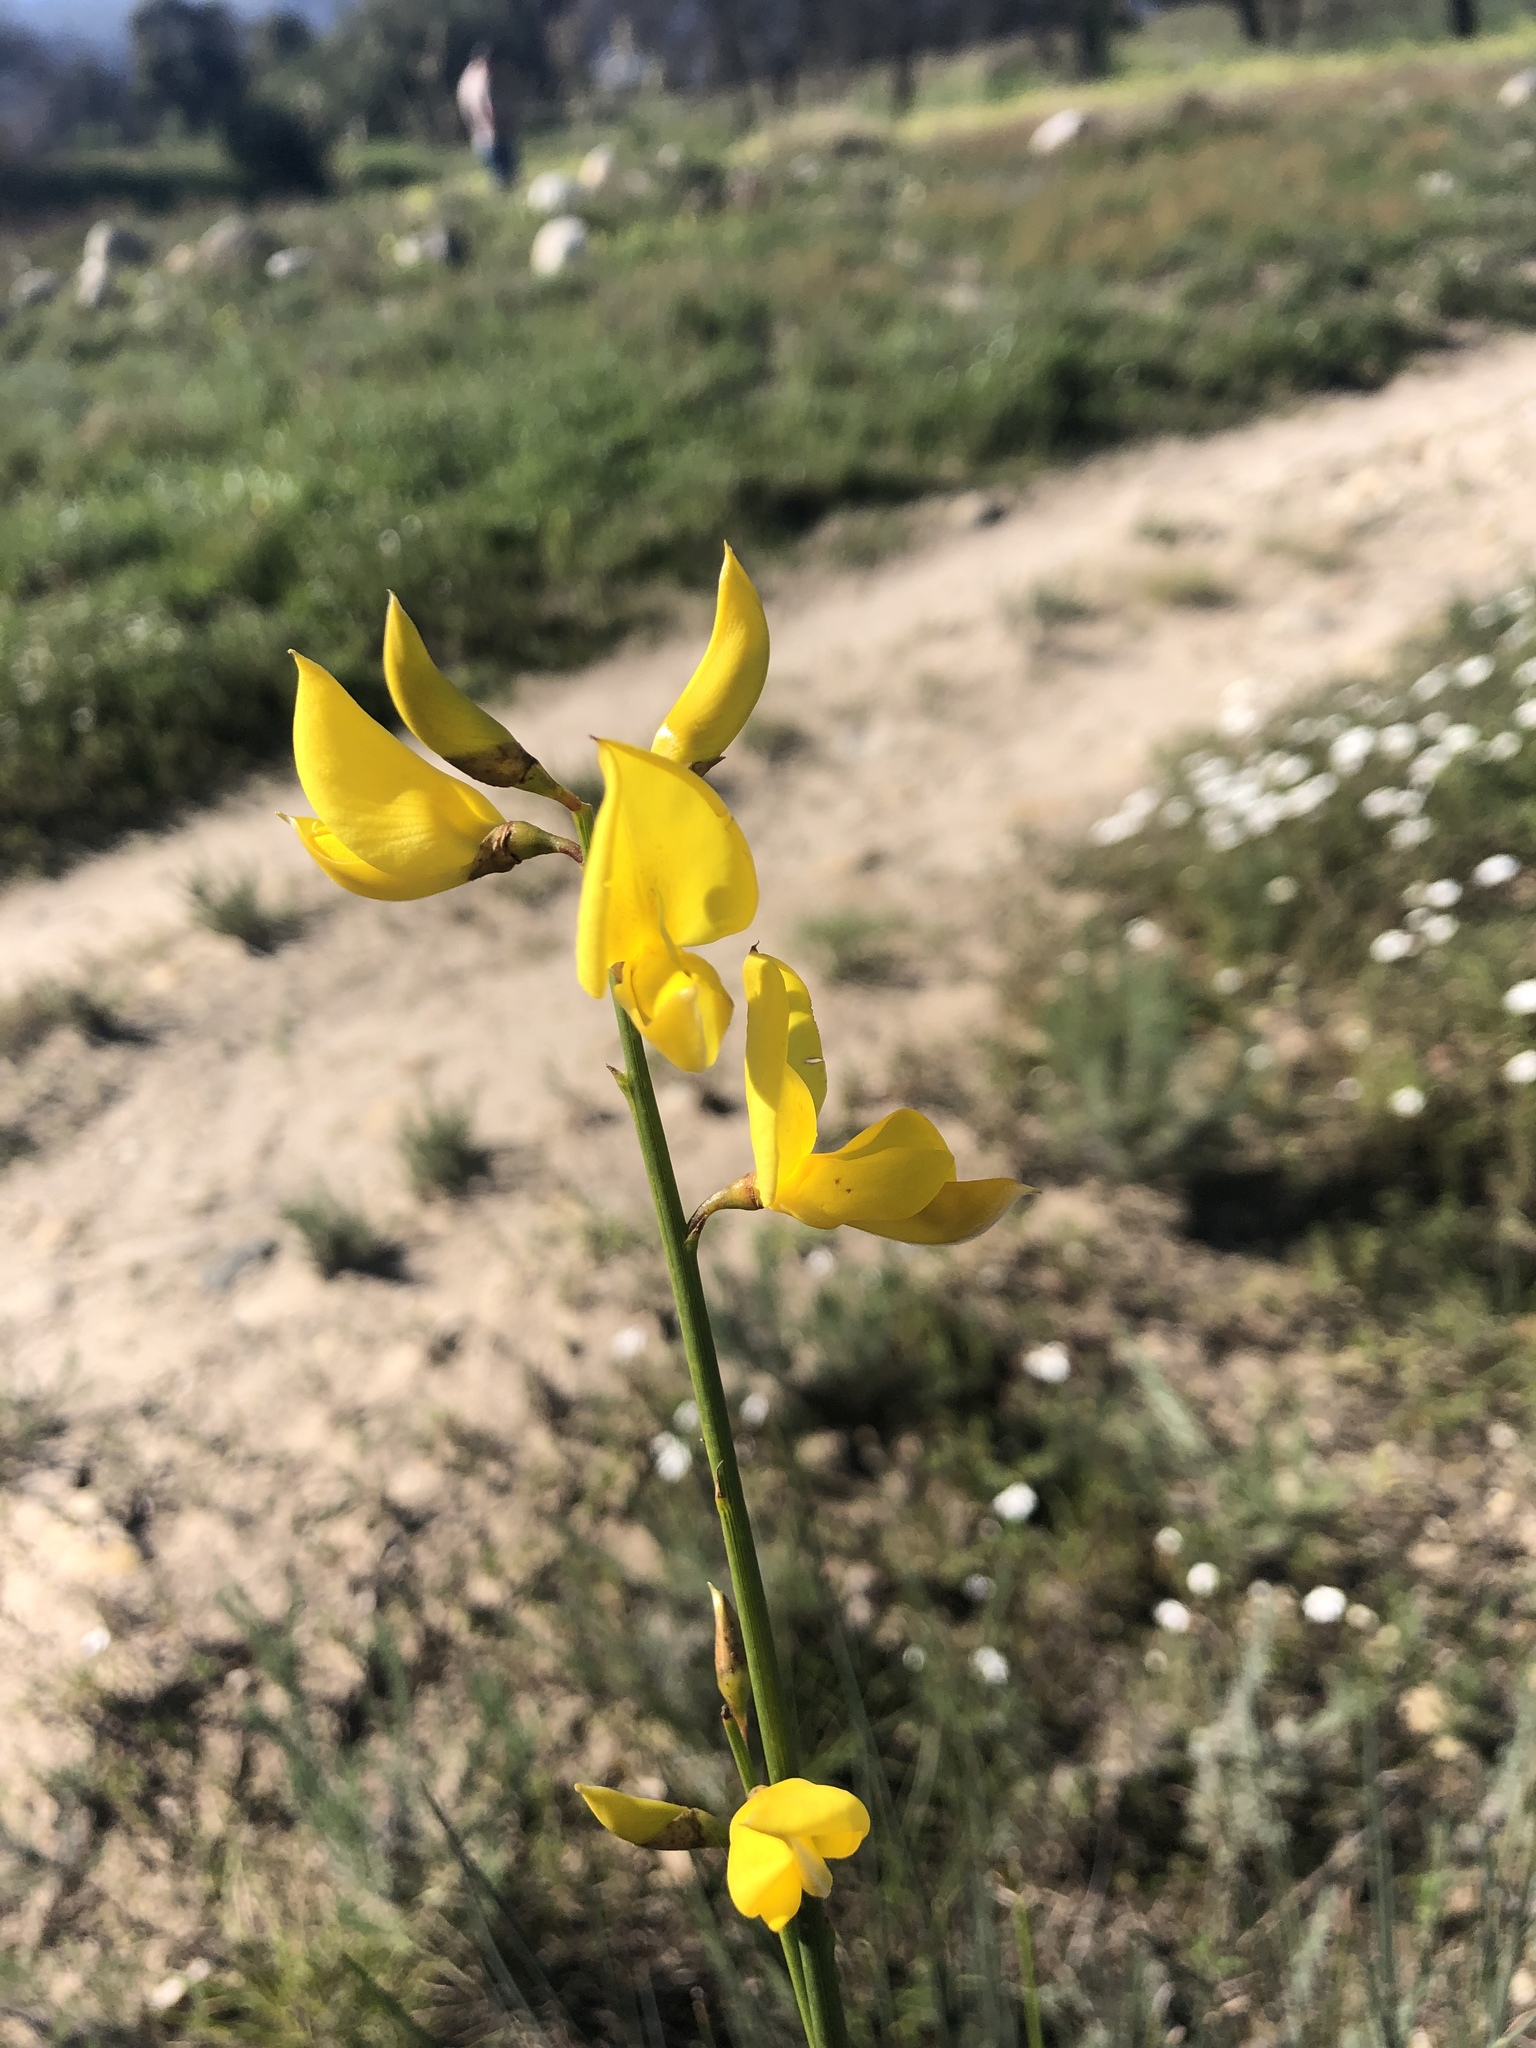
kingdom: Plantae
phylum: Tracheophyta
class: Magnoliopsida
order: Fabales
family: Fabaceae
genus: Spartium
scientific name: Spartium junceum
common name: Spanish broom
